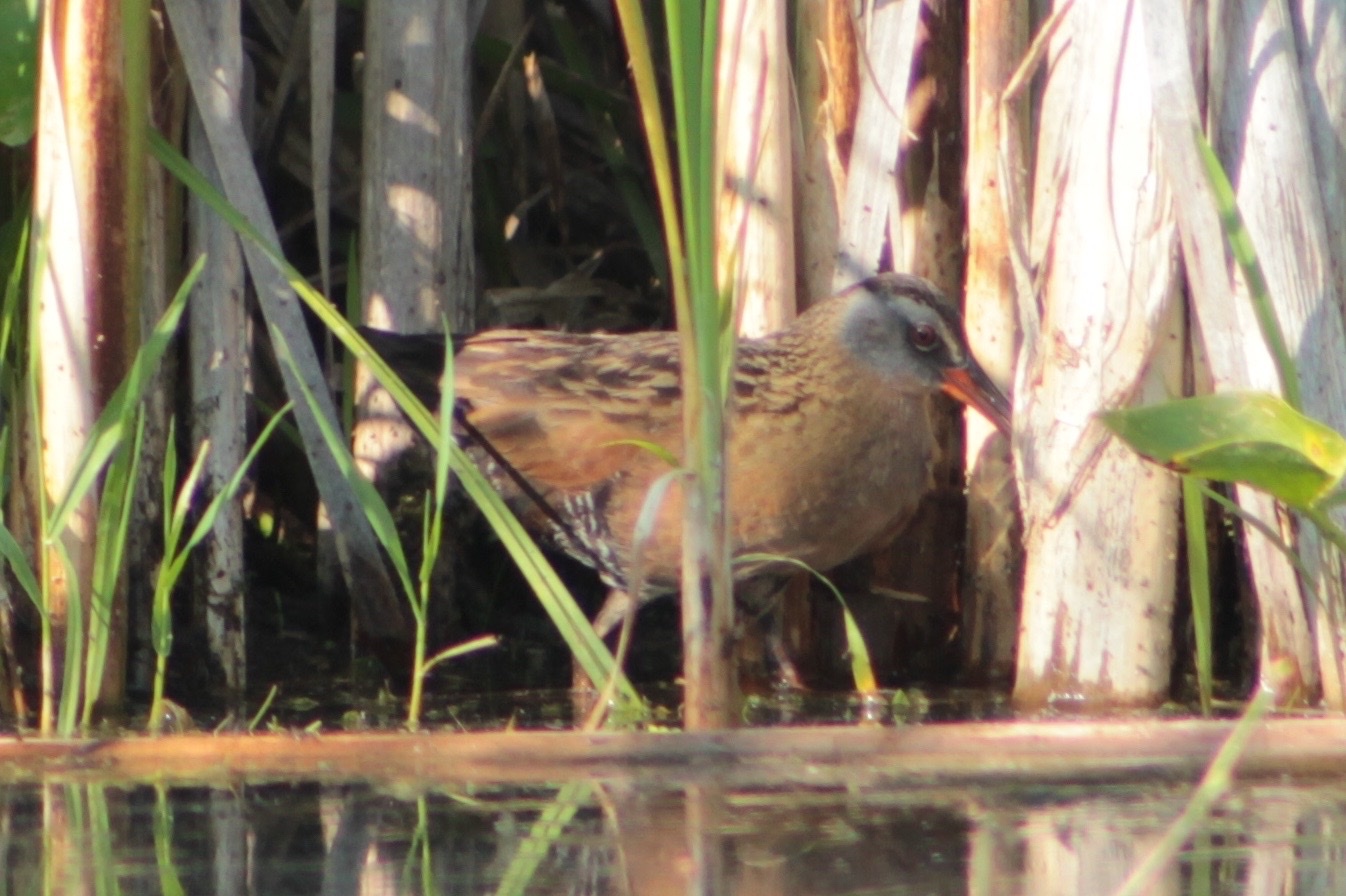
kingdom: Animalia
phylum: Chordata
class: Aves
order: Gruiformes
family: Rallidae
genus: Rallus
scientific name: Rallus limicola
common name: Virginia rail
